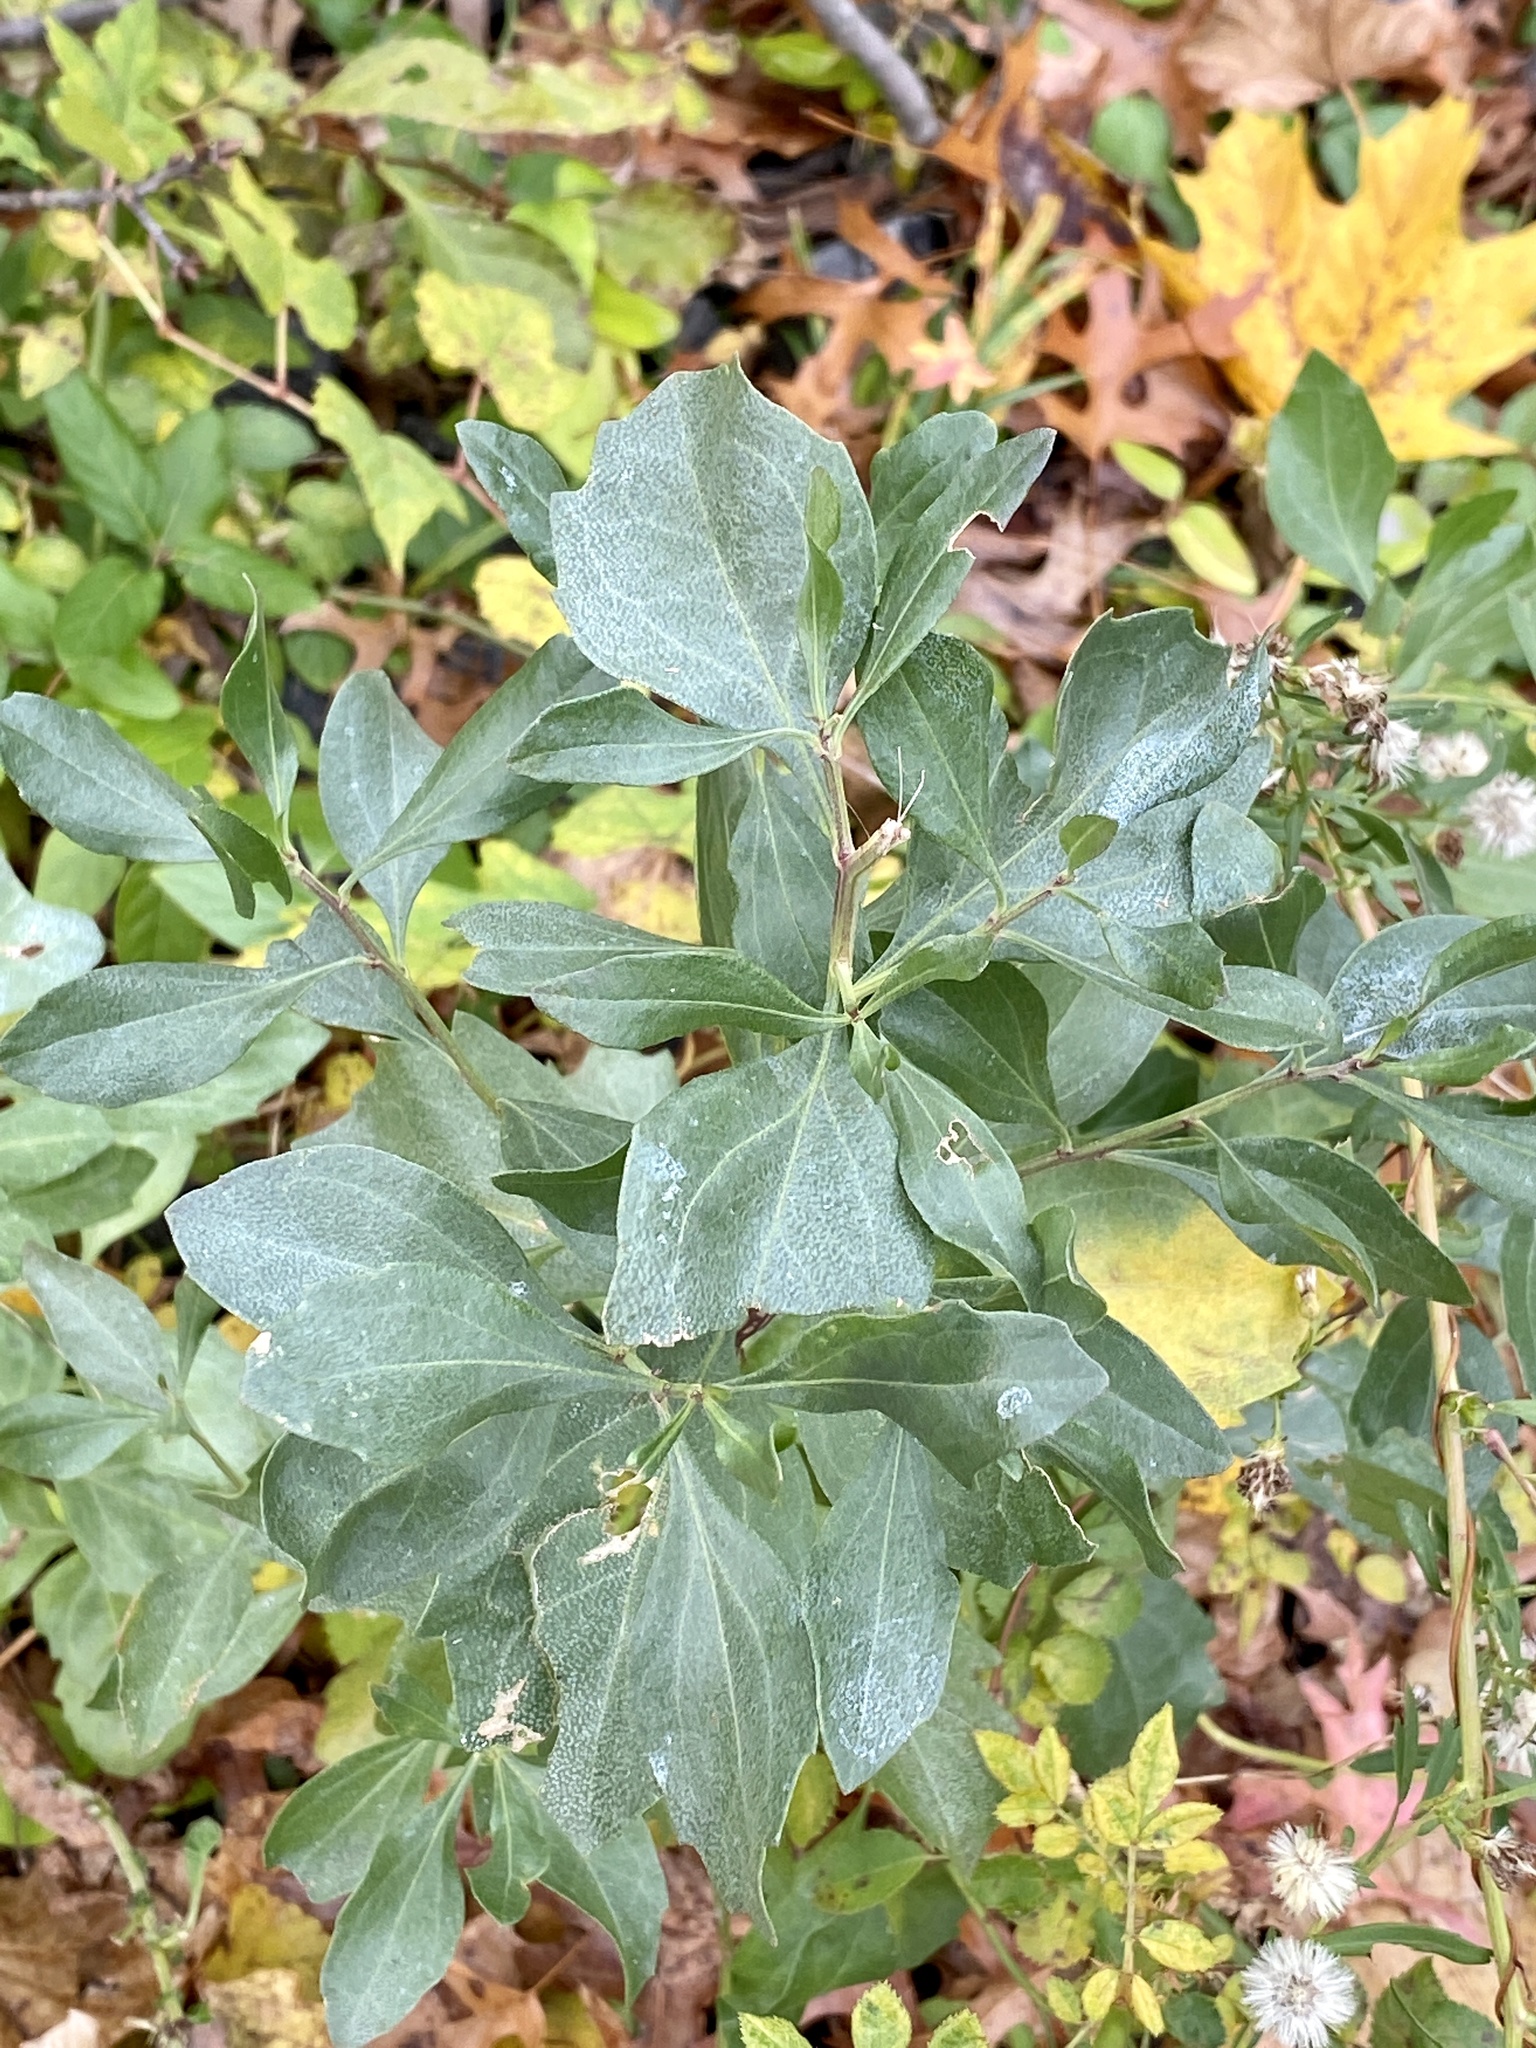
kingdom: Plantae
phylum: Tracheophyta
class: Magnoliopsida
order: Asterales
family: Asteraceae
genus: Baccharis
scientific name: Baccharis halimifolia
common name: Eastern baccharis
